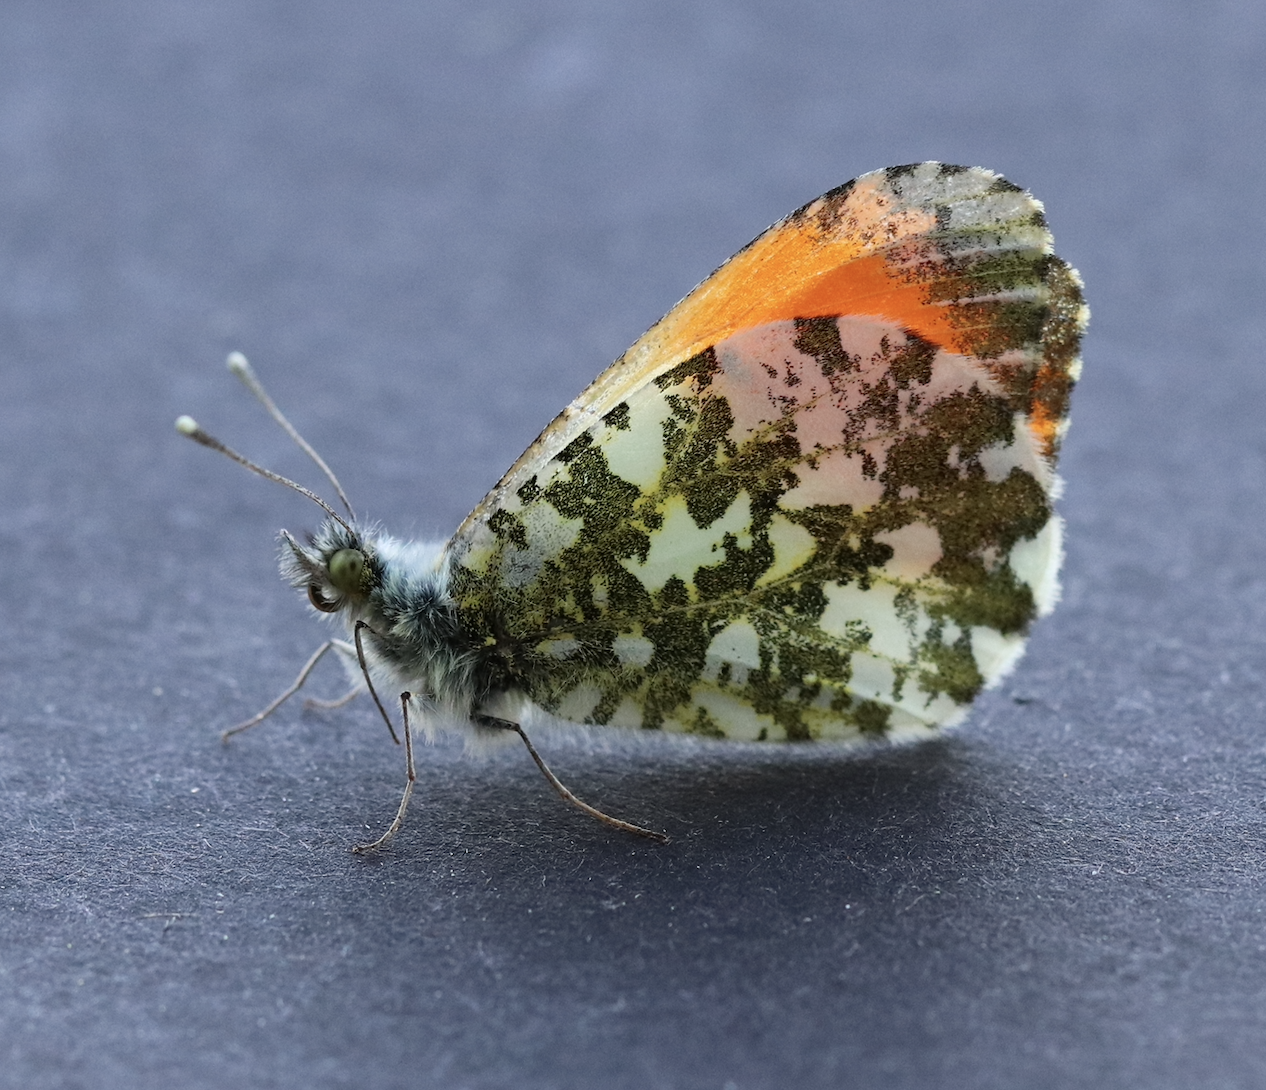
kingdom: Animalia
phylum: Arthropoda
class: Insecta
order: Lepidoptera
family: Pieridae
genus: Anthocharis
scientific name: Anthocharis cardamines
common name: Orange-tip
